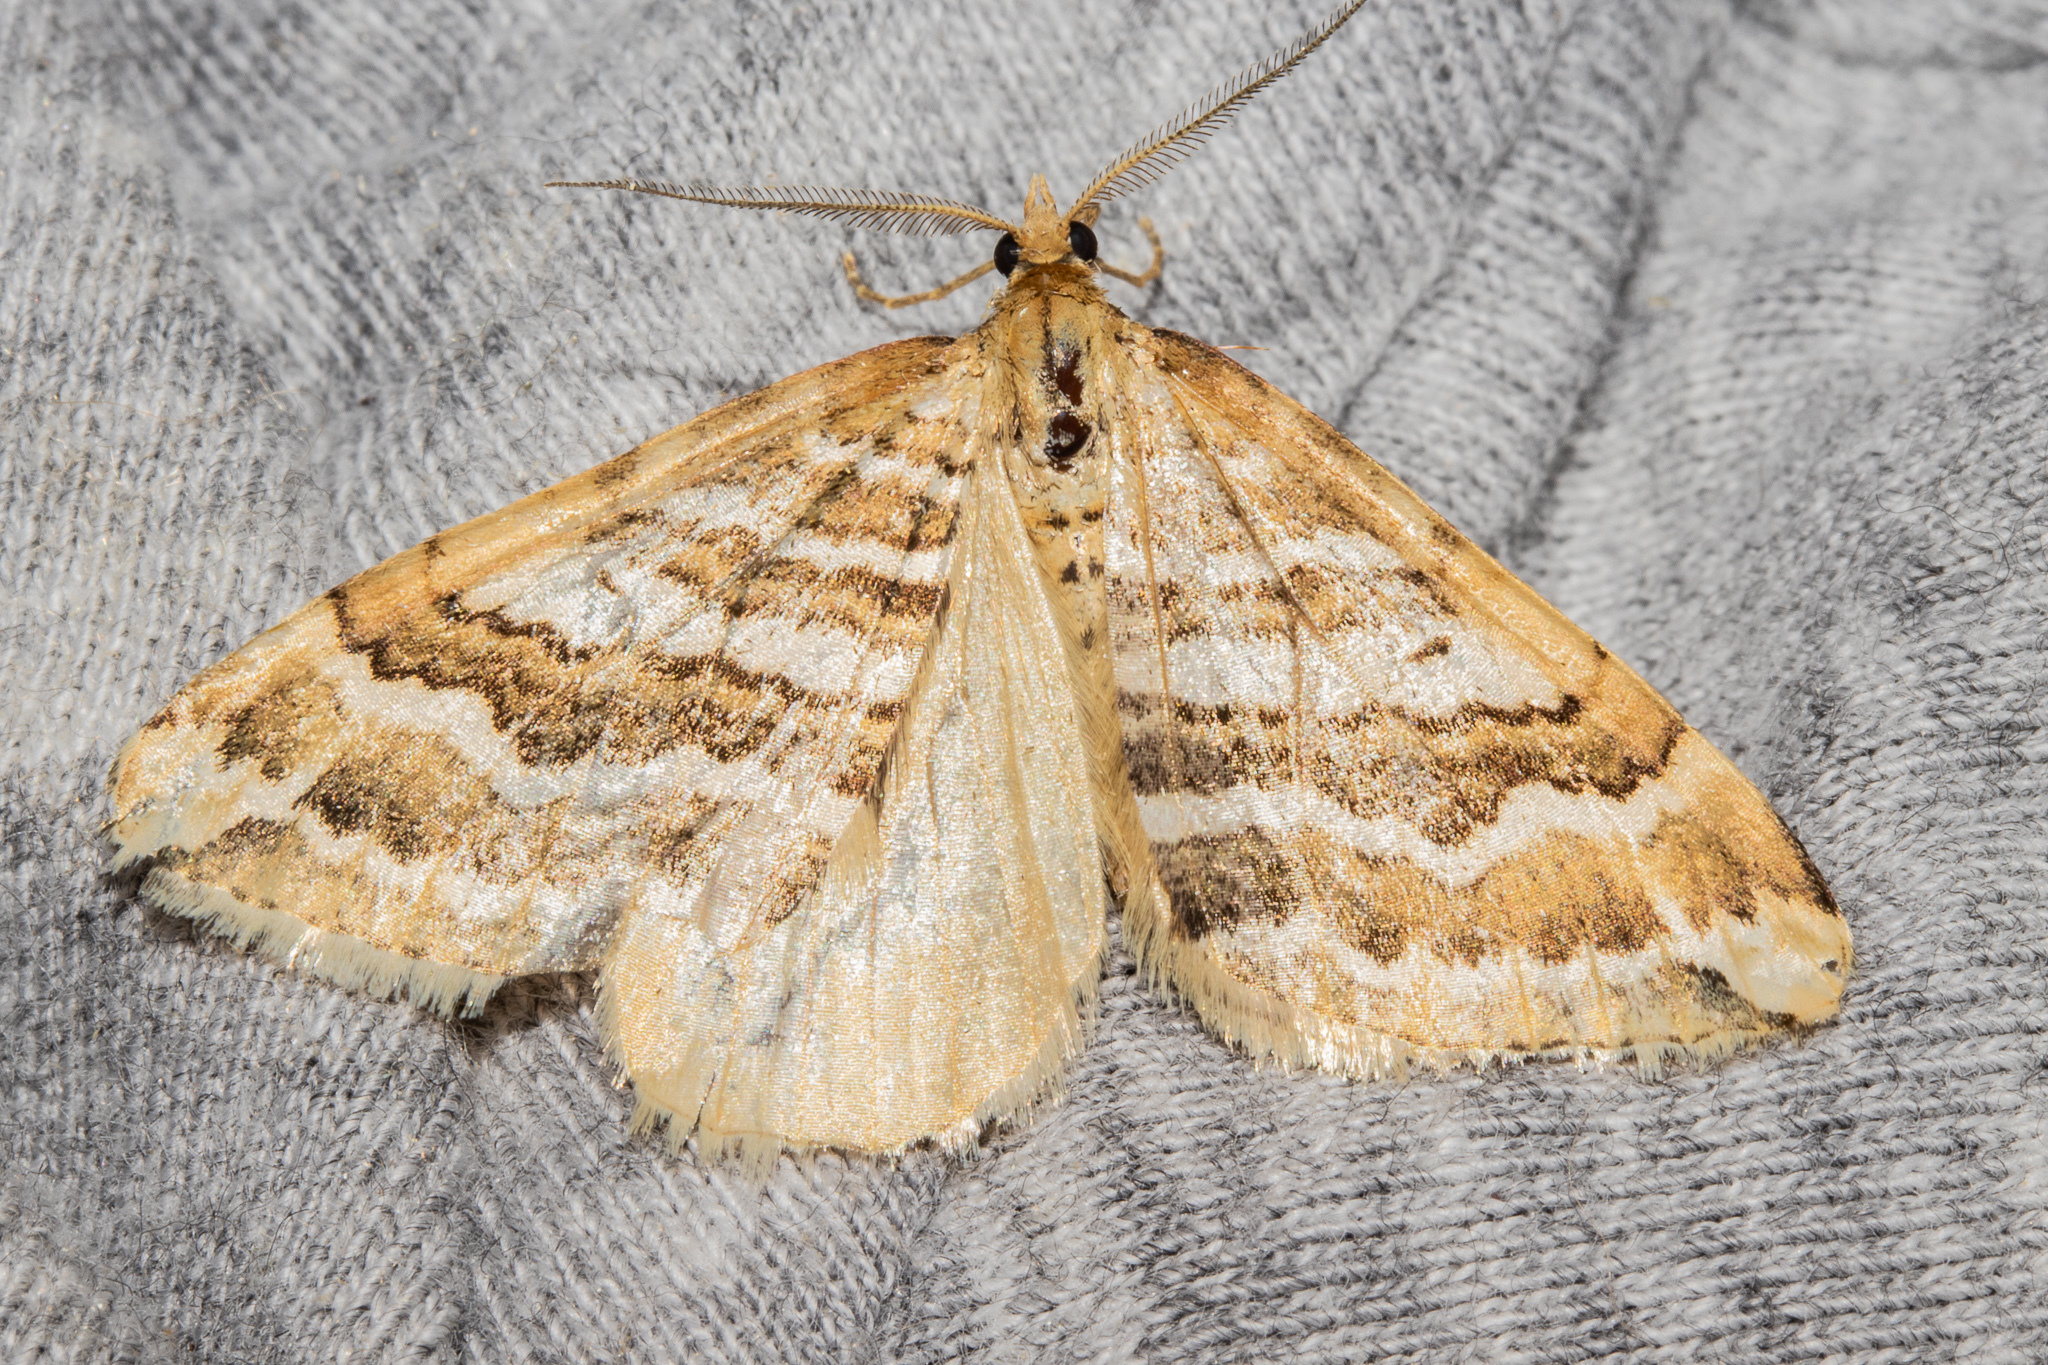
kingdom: Animalia
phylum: Arthropoda
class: Insecta
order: Lepidoptera
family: Geometridae
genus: Asaphodes
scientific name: Asaphodes cataphracta
